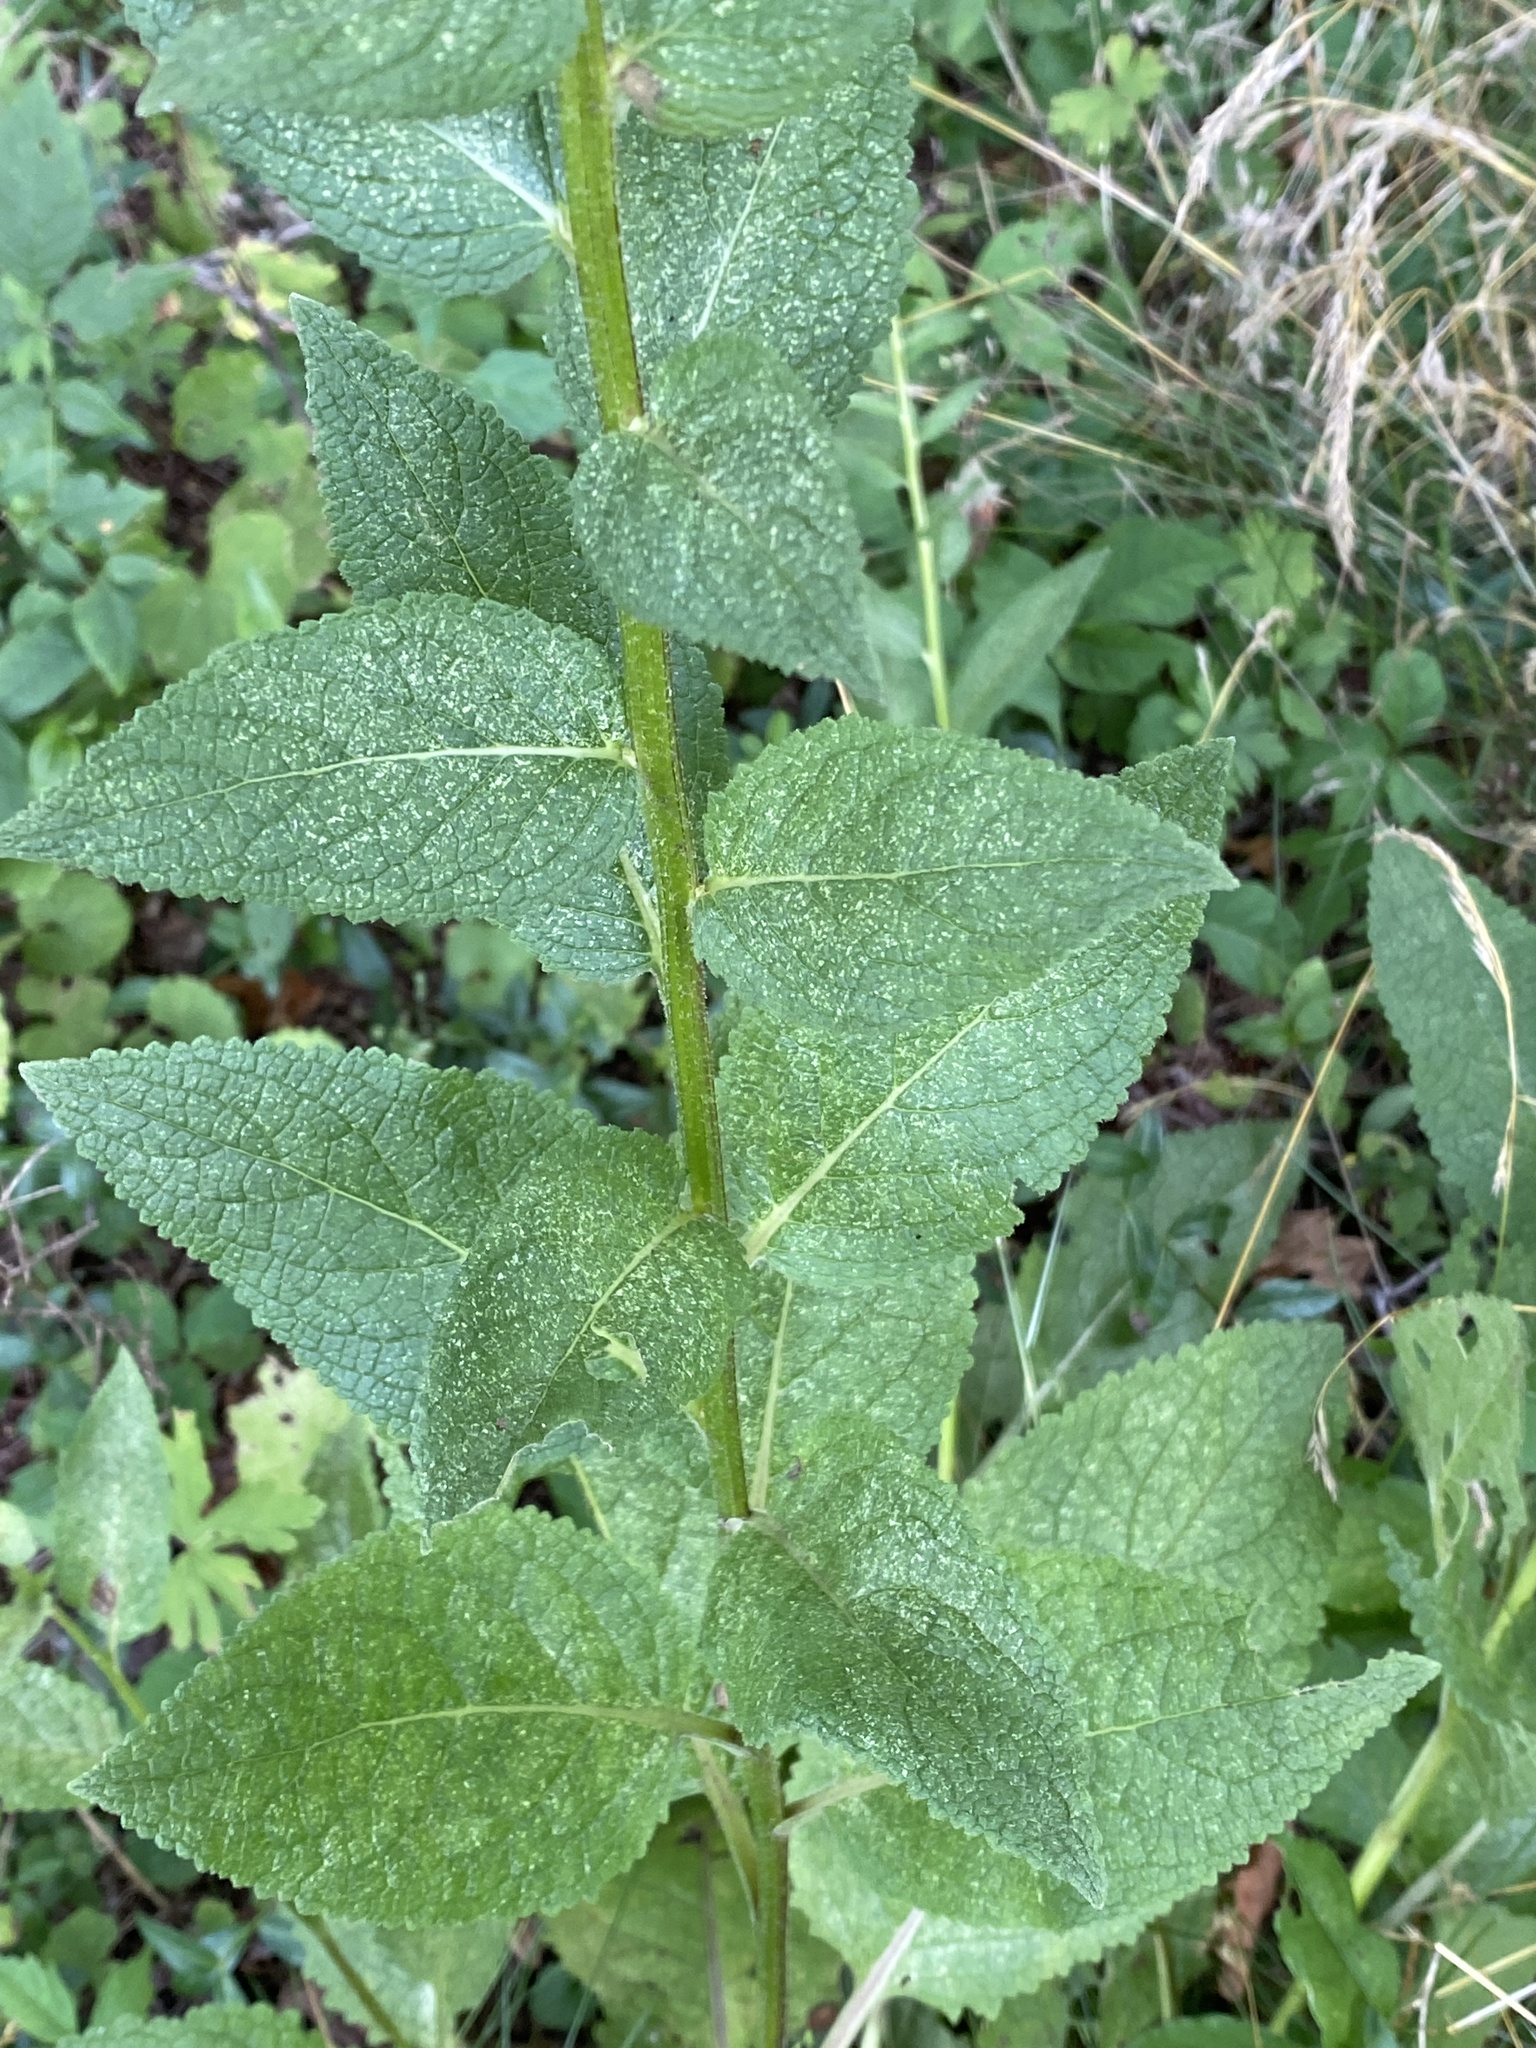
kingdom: Plantae
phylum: Tracheophyta
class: Magnoliopsida
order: Lamiales
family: Scrophulariaceae
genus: Verbascum
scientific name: Verbascum nigrum
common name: Dark mullein
